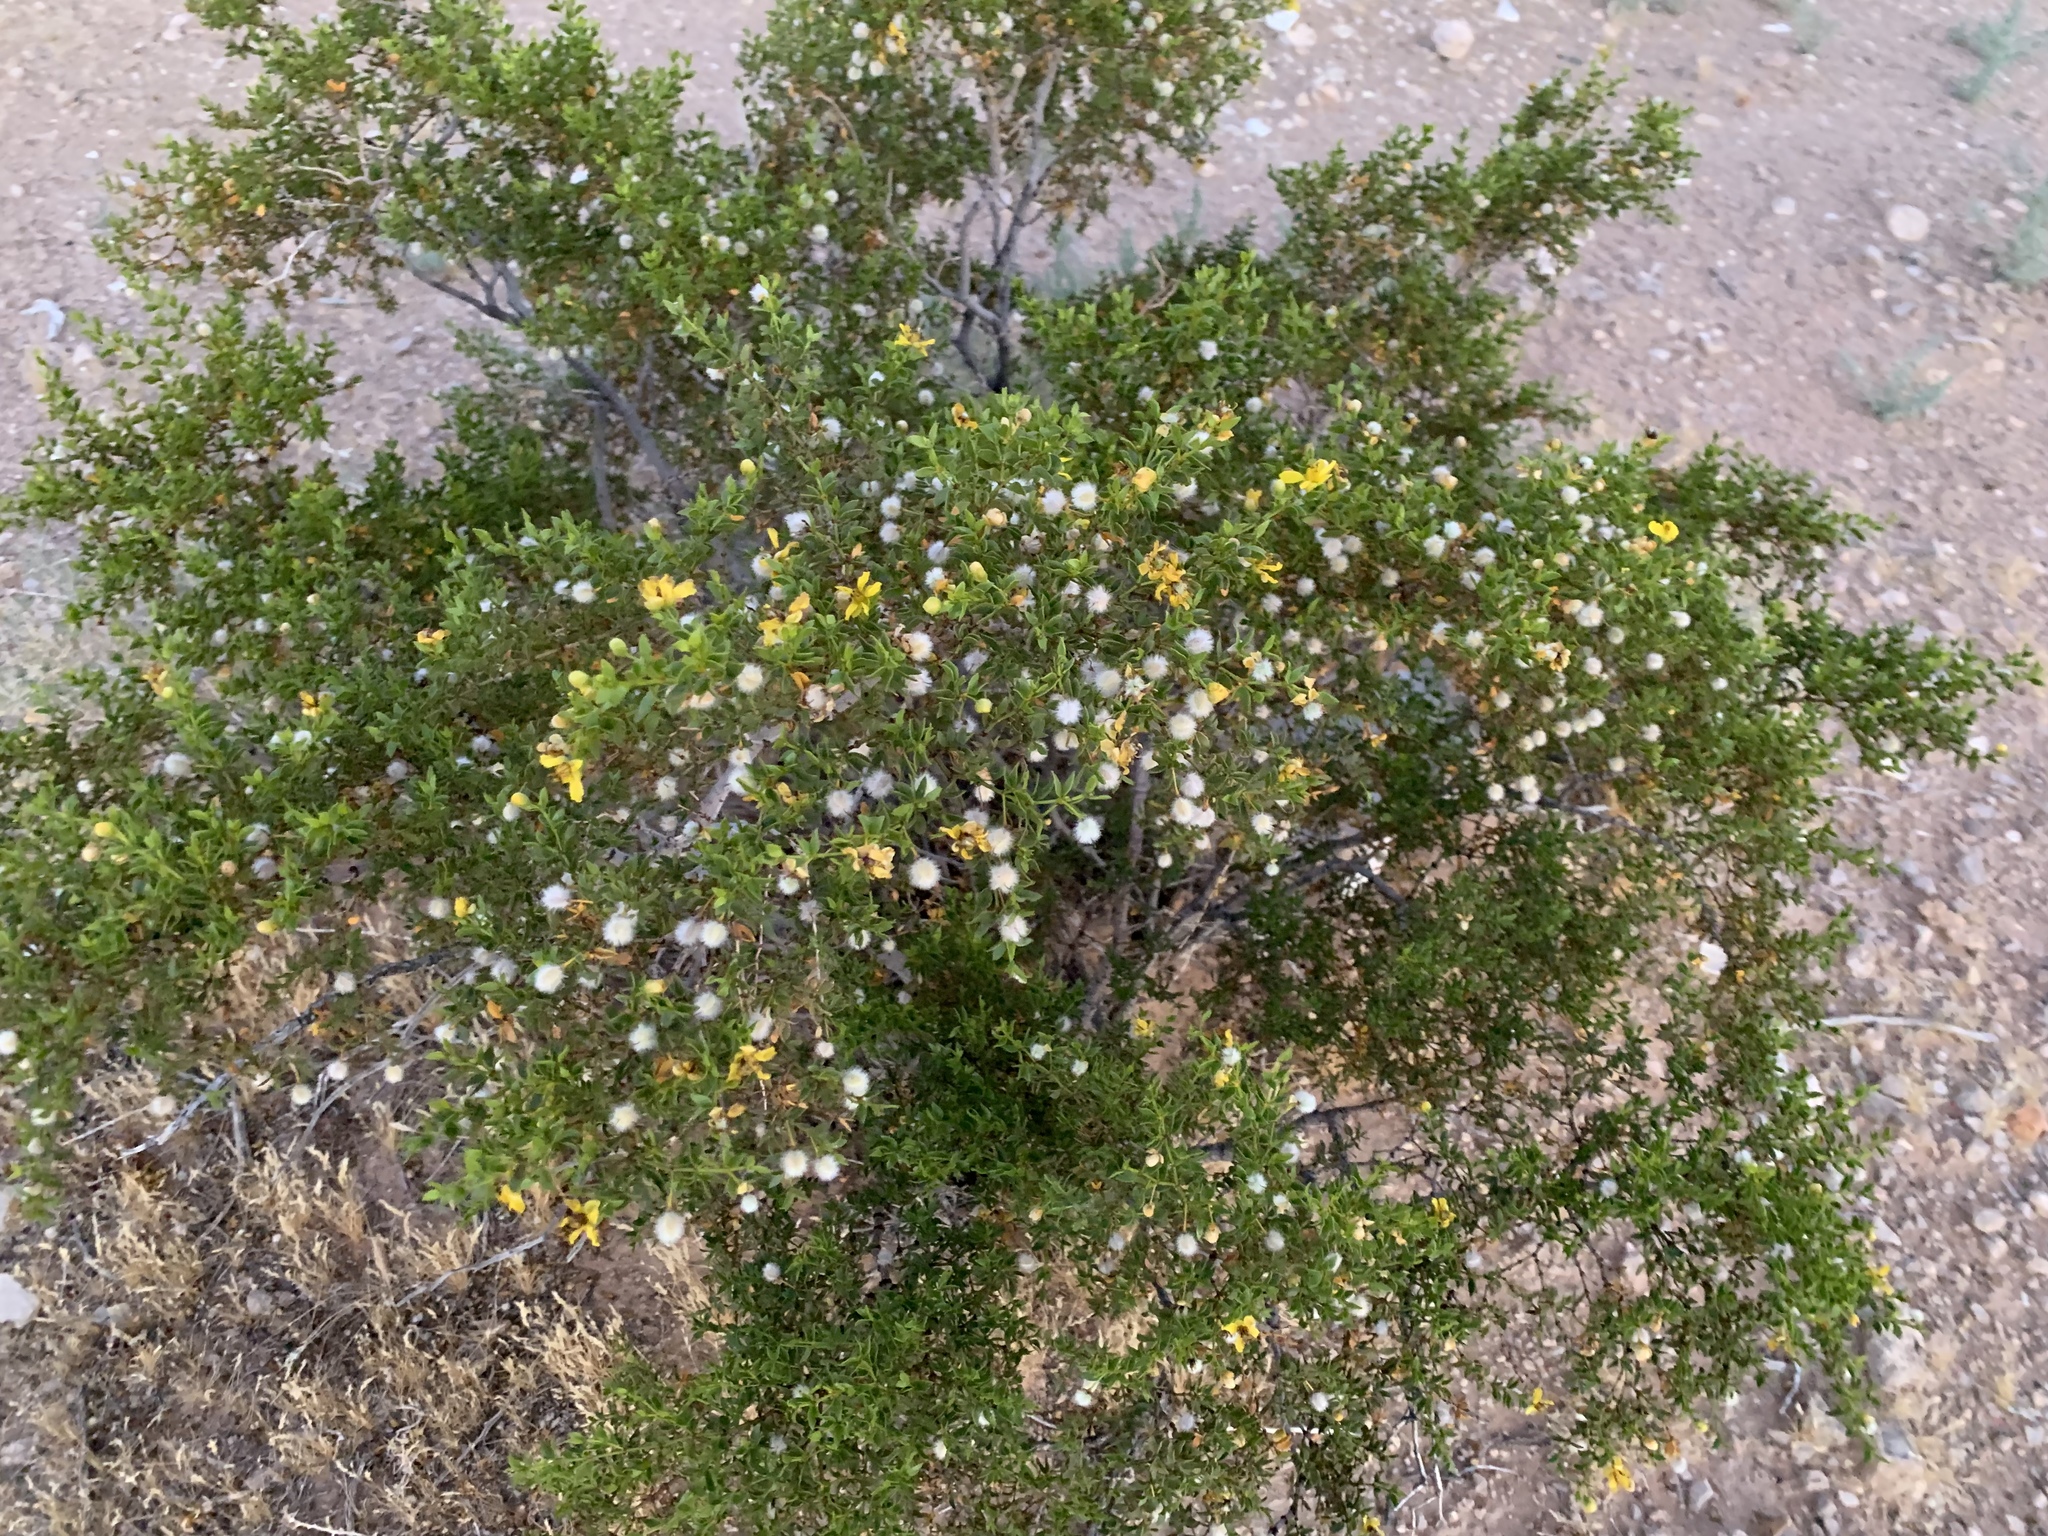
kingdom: Plantae
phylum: Tracheophyta
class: Magnoliopsida
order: Zygophyllales
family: Zygophyllaceae
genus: Larrea
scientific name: Larrea tridentata
